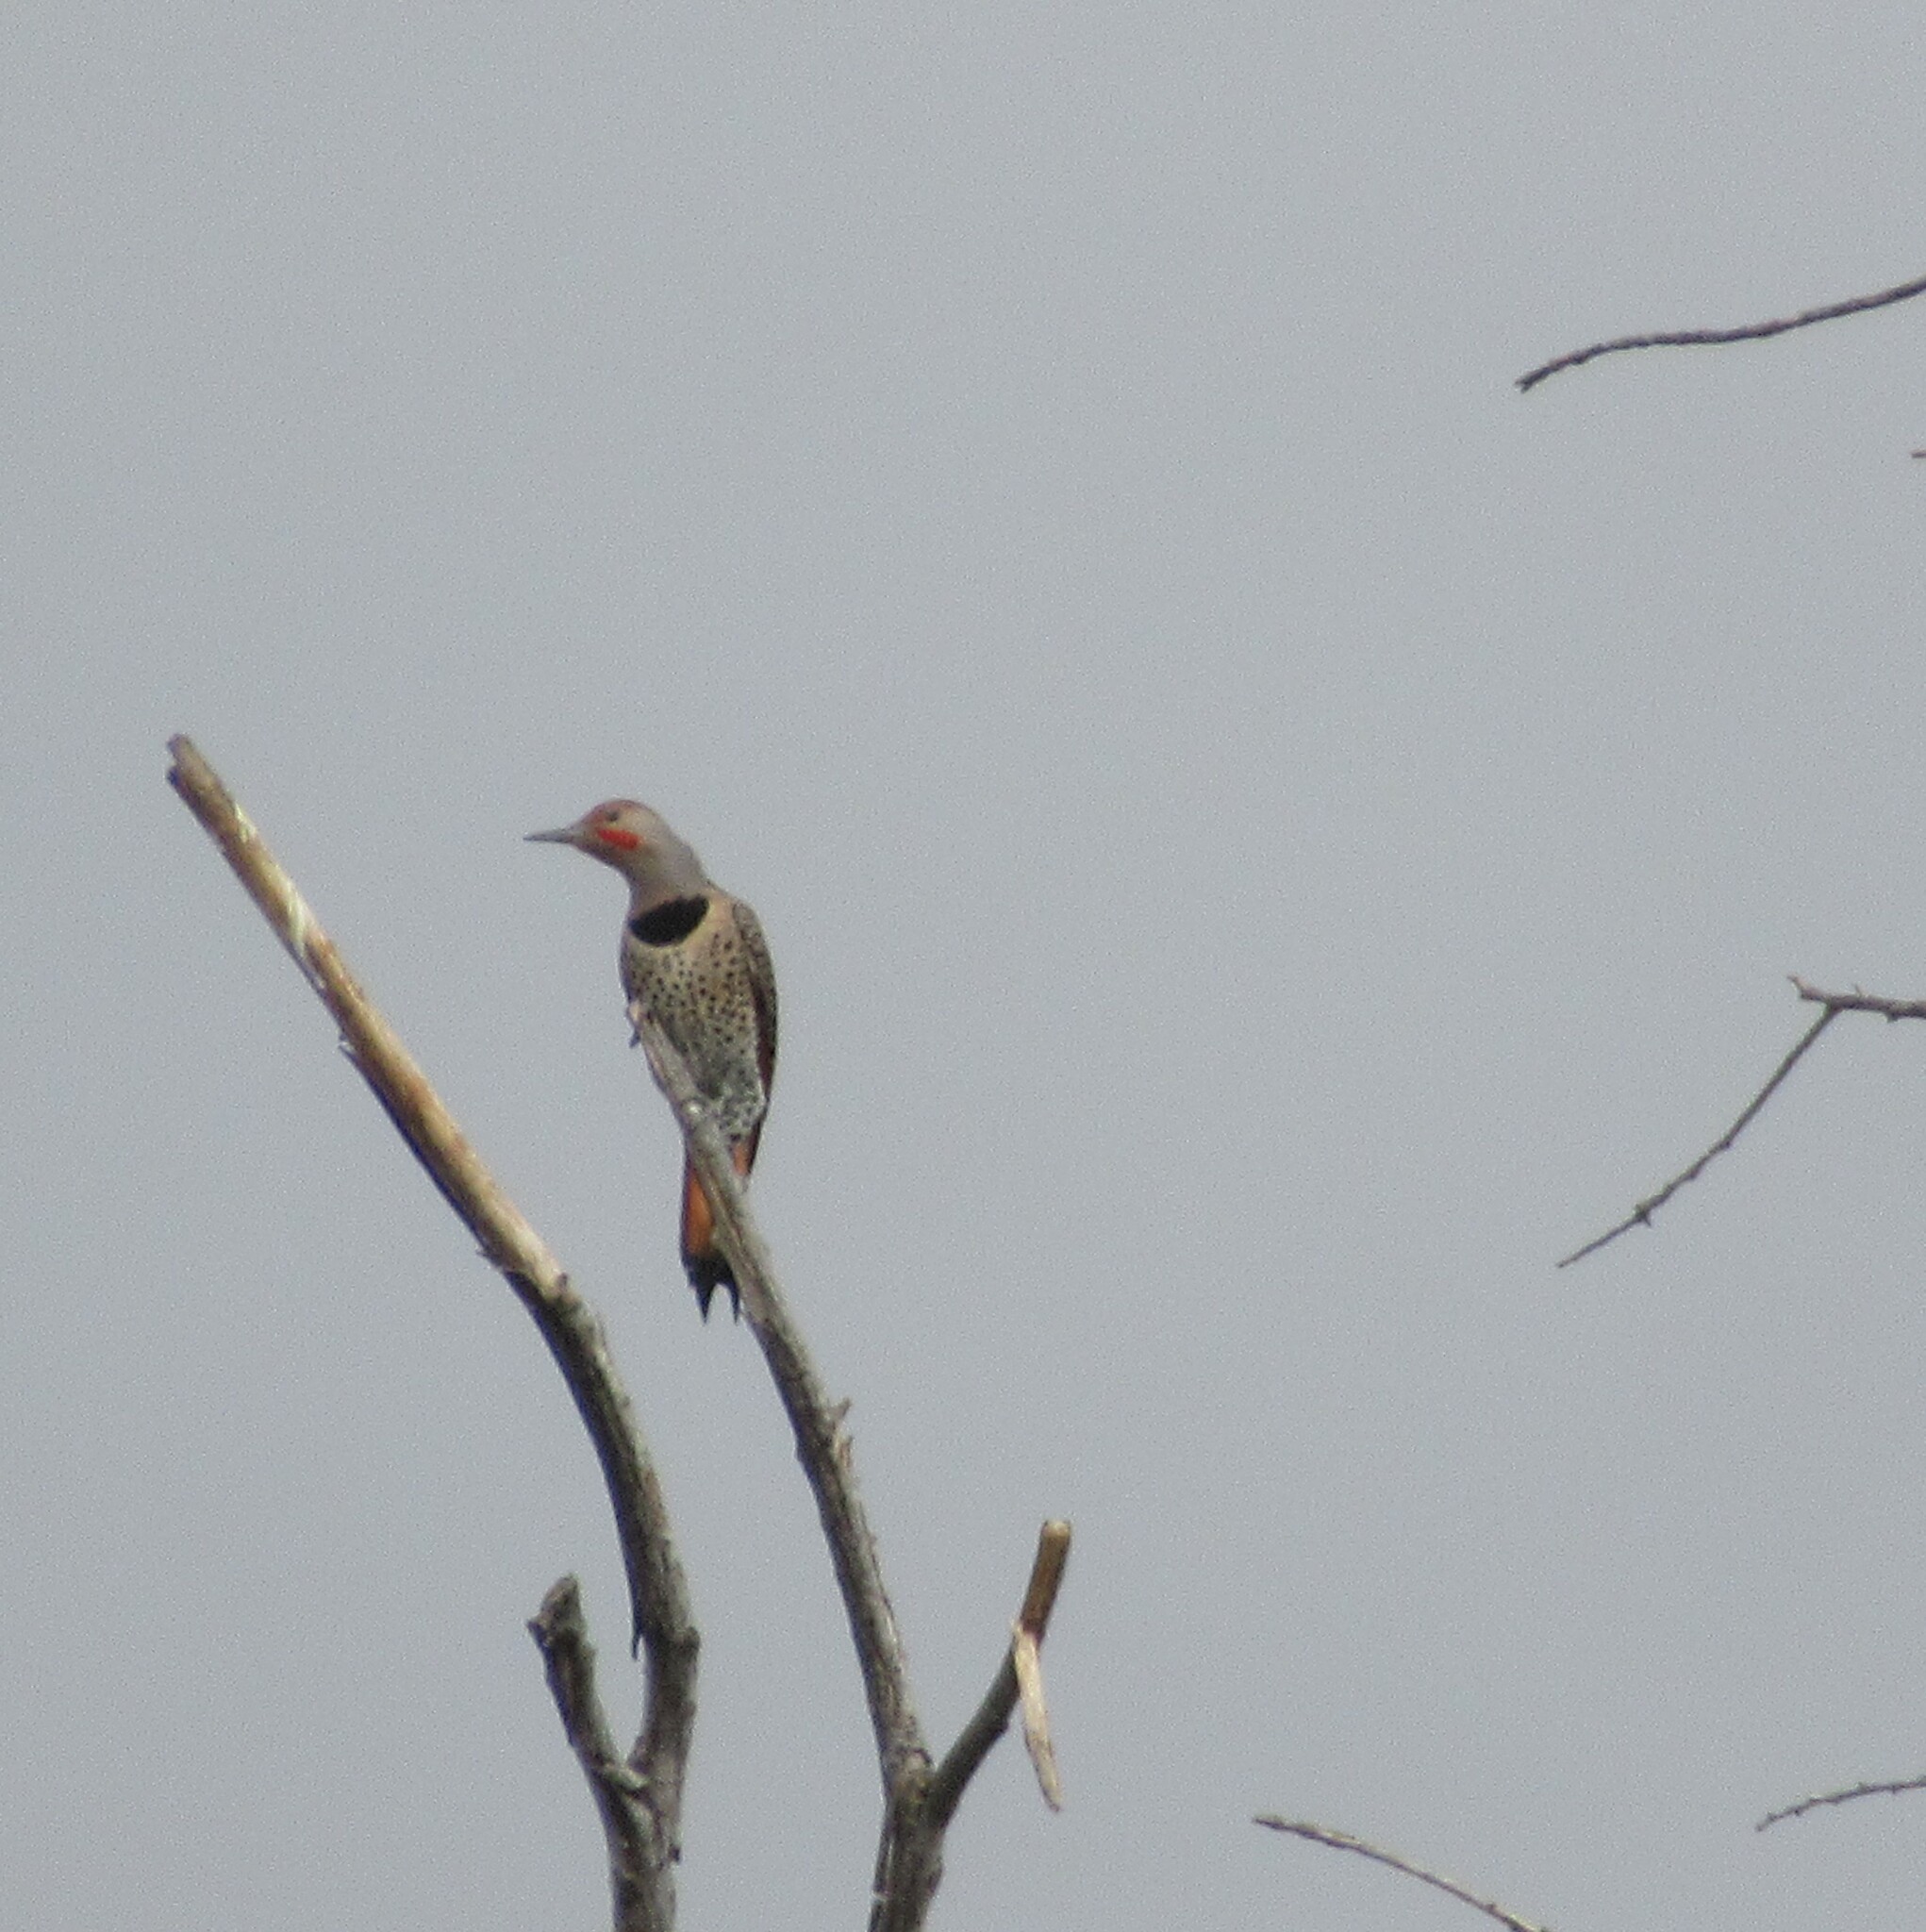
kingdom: Animalia
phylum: Chordata
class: Aves
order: Piciformes
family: Picidae
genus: Colaptes
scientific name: Colaptes auratus
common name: Northern flicker
